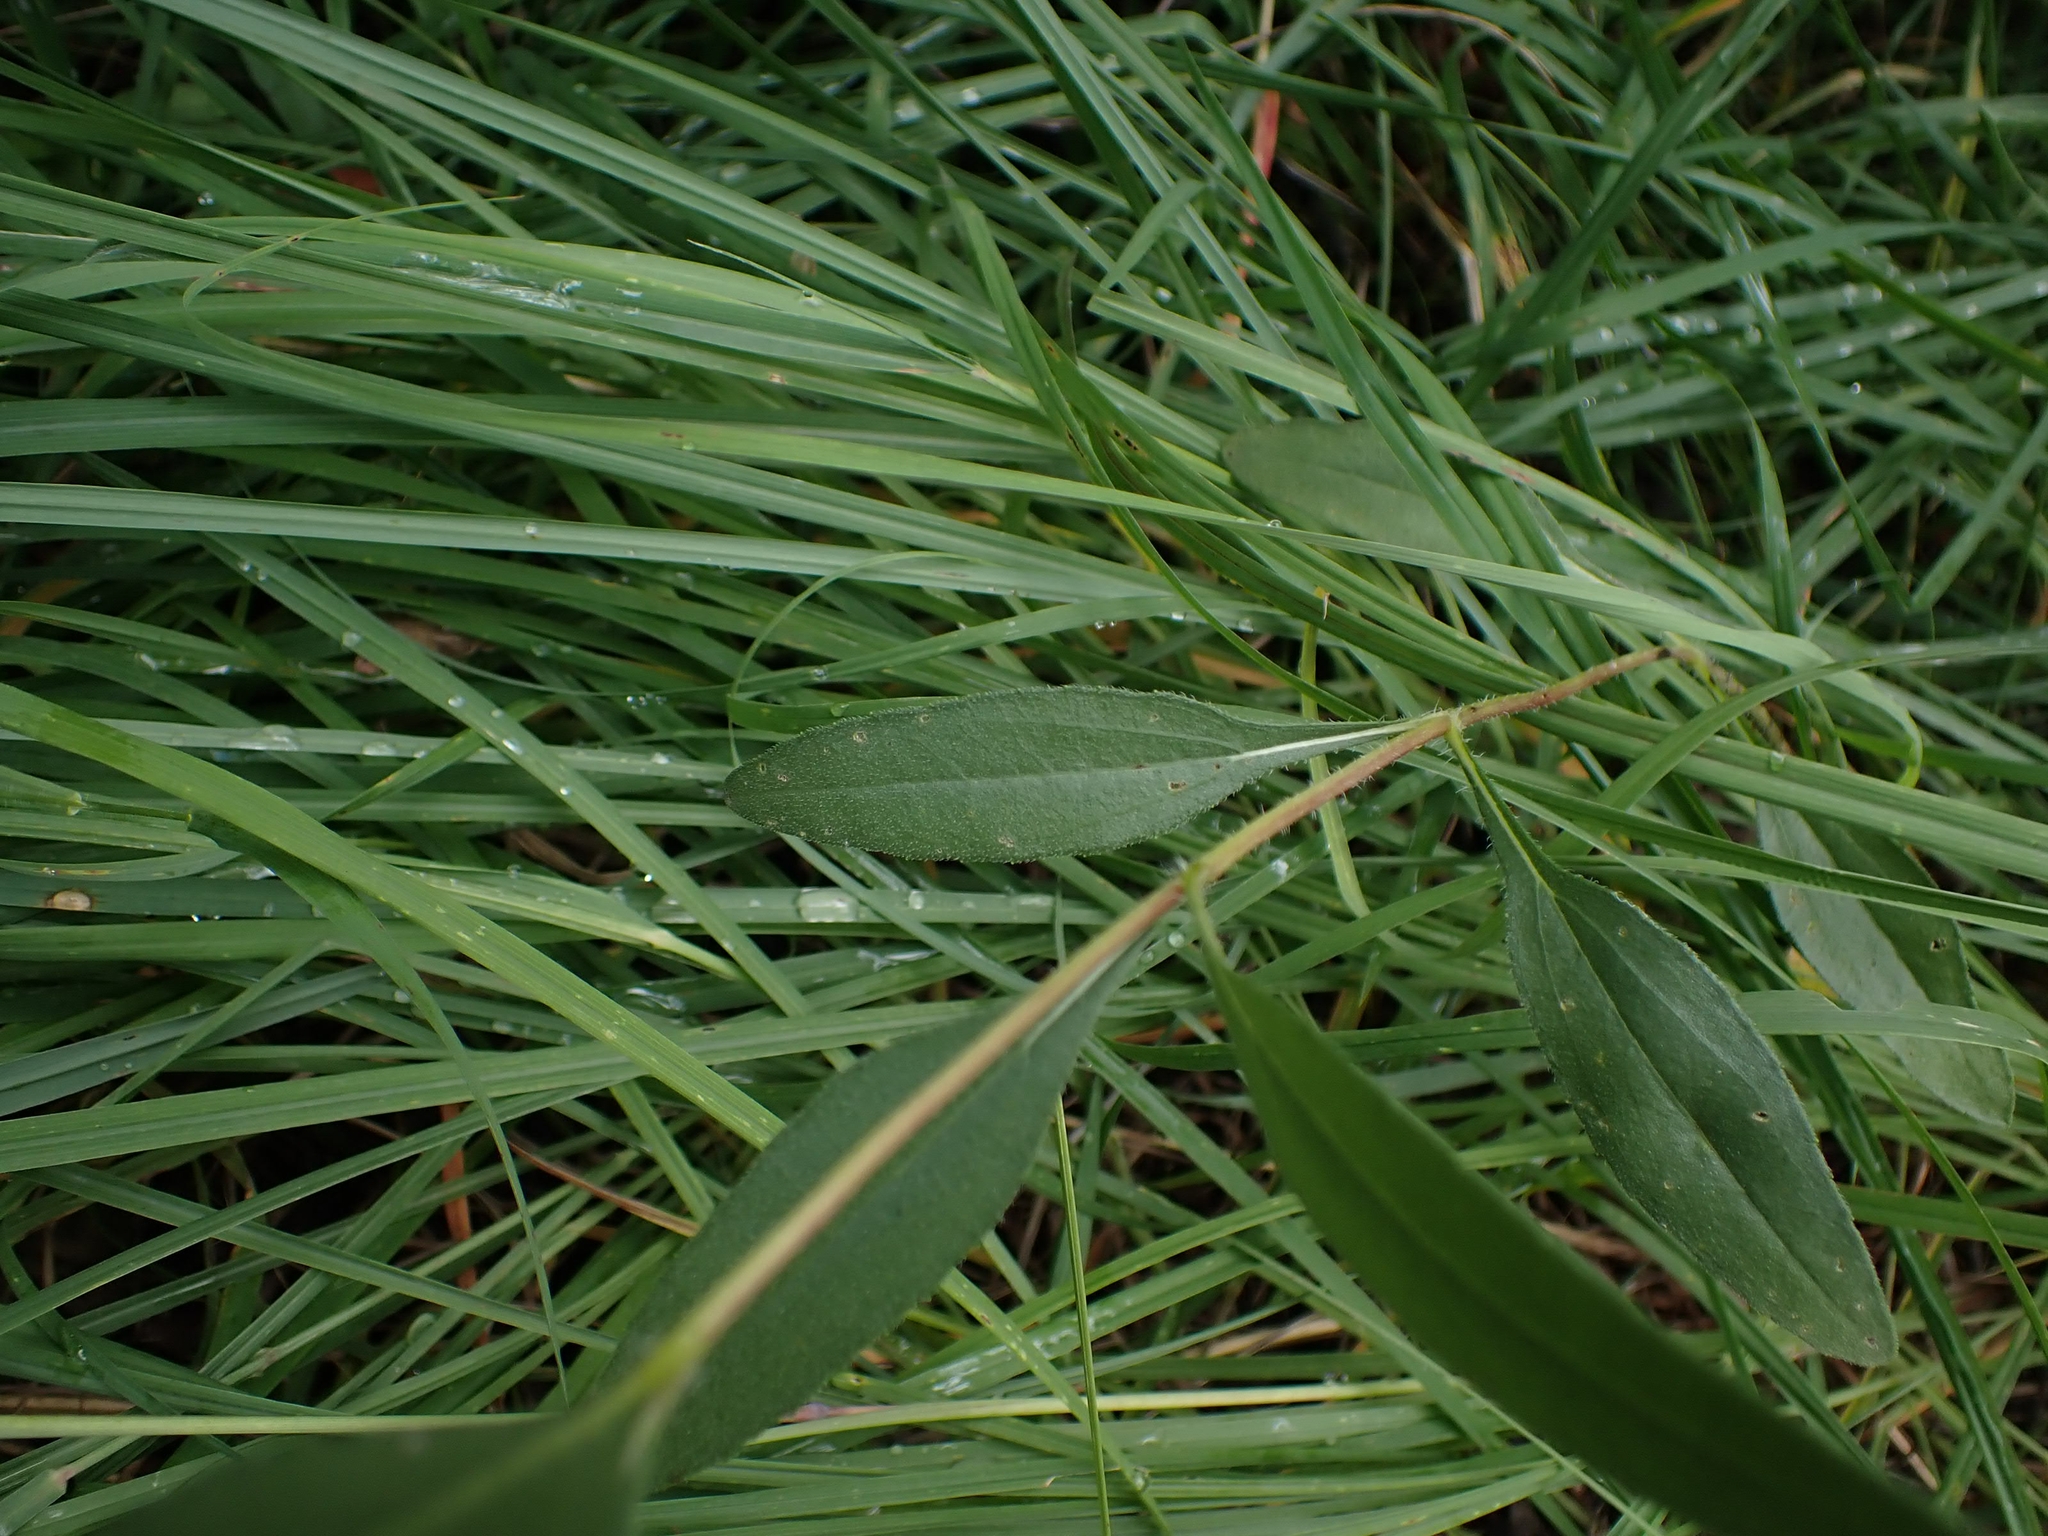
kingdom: Plantae
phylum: Tracheophyta
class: Magnoliopsida
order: Asterales
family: Asteraceae
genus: Helianthus
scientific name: Helianthus pauciflorus
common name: Stiff sunflower
